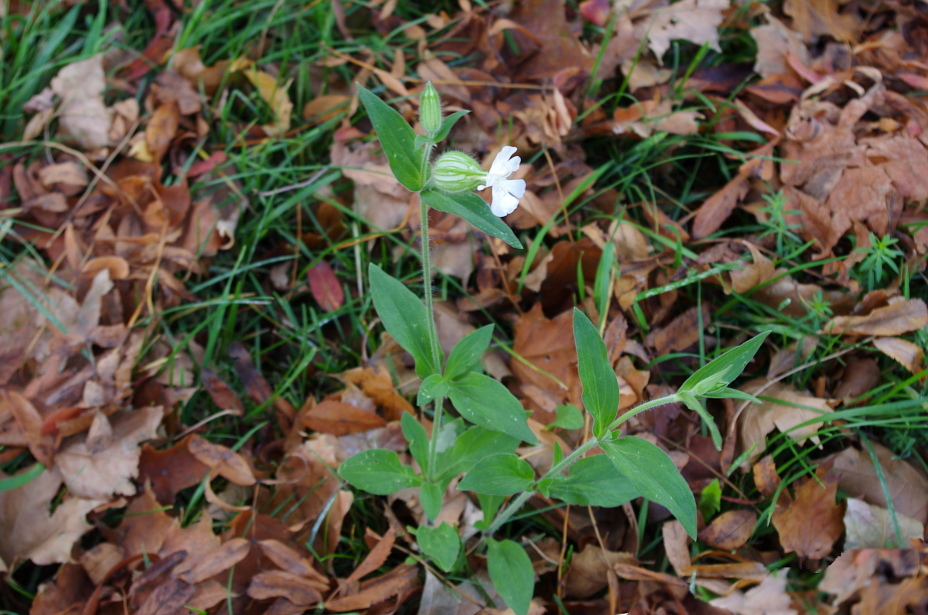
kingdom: Plantae
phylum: Tracheophyta
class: Magnoliopsida
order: Caryophyllales
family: Caryophyllaceae
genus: Silene
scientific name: Silene latifolia
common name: White campion
